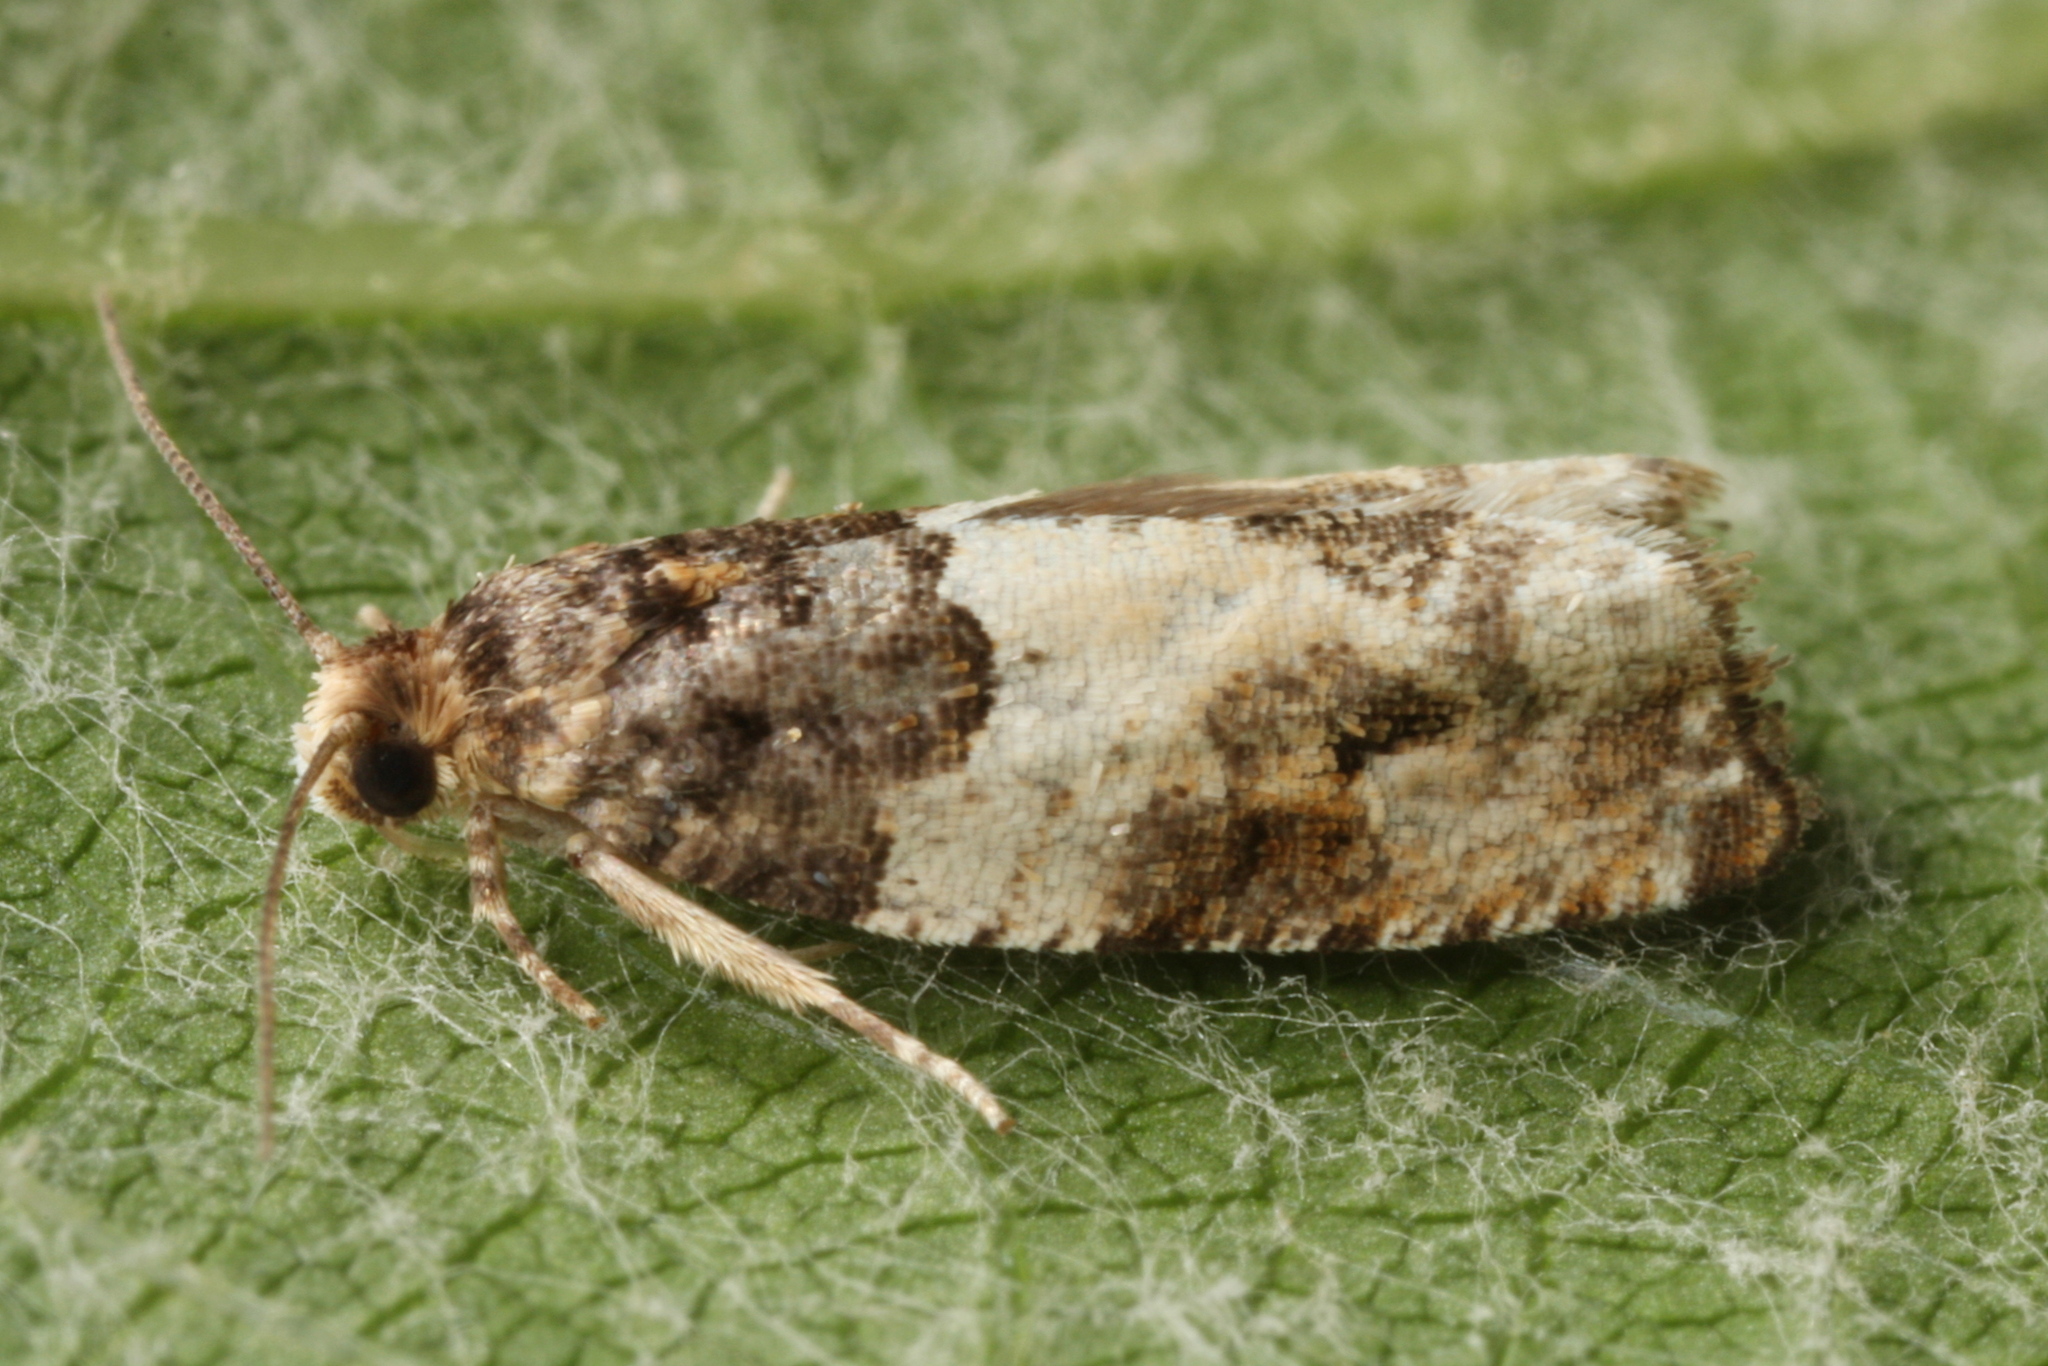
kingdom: Animalia
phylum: Arthropoda
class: Insecta
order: Lepidoptera
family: Tortricidae
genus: Gypsonoma
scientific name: Gypsonoma dealbana
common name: Common cloaked shoot
